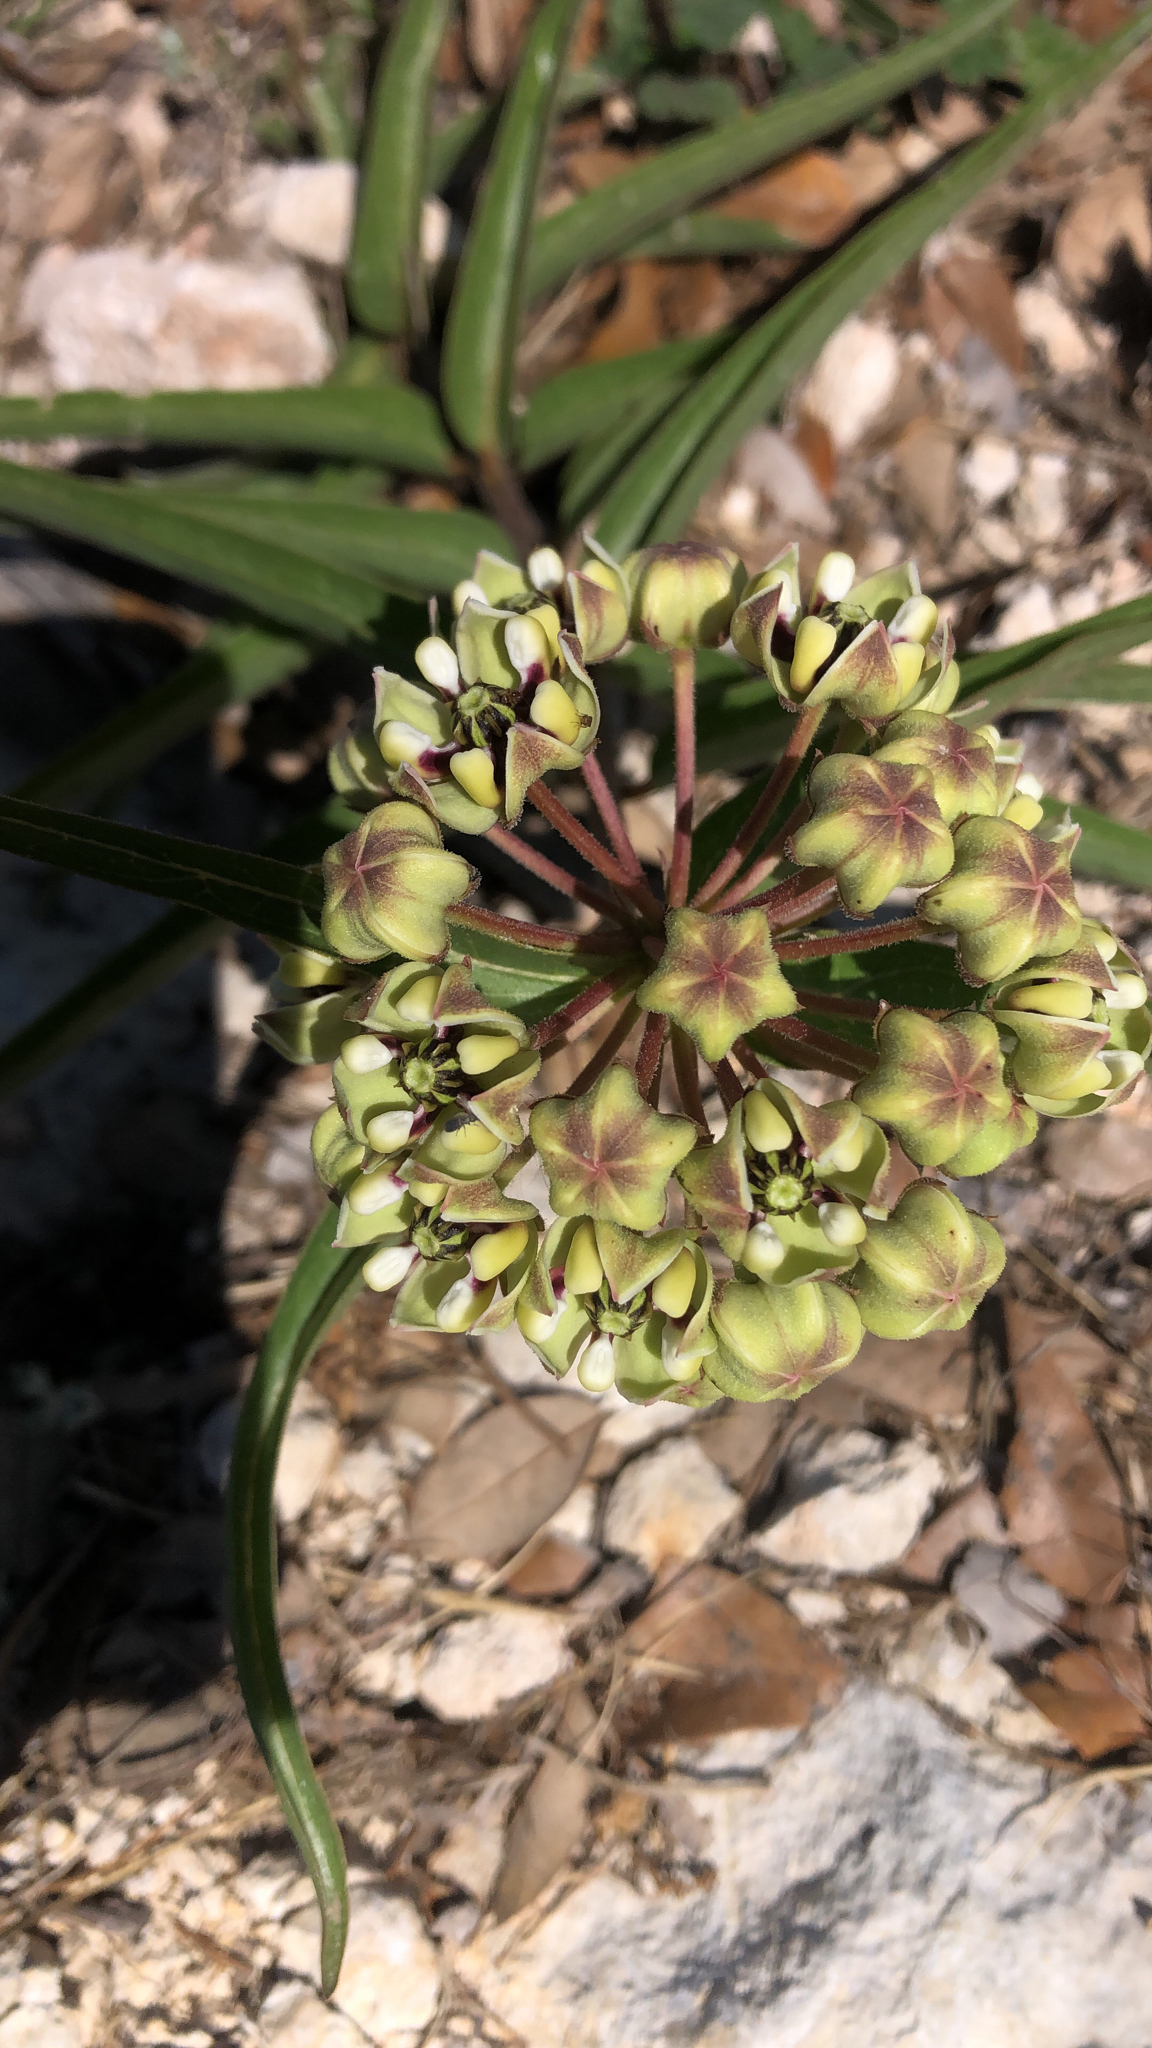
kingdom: Plantae
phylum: Tracheophyta
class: Magnoliopsida
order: Gentianales
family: Apocynaceae
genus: Asclepias
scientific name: Asclepias asperula
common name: Antelope horns
